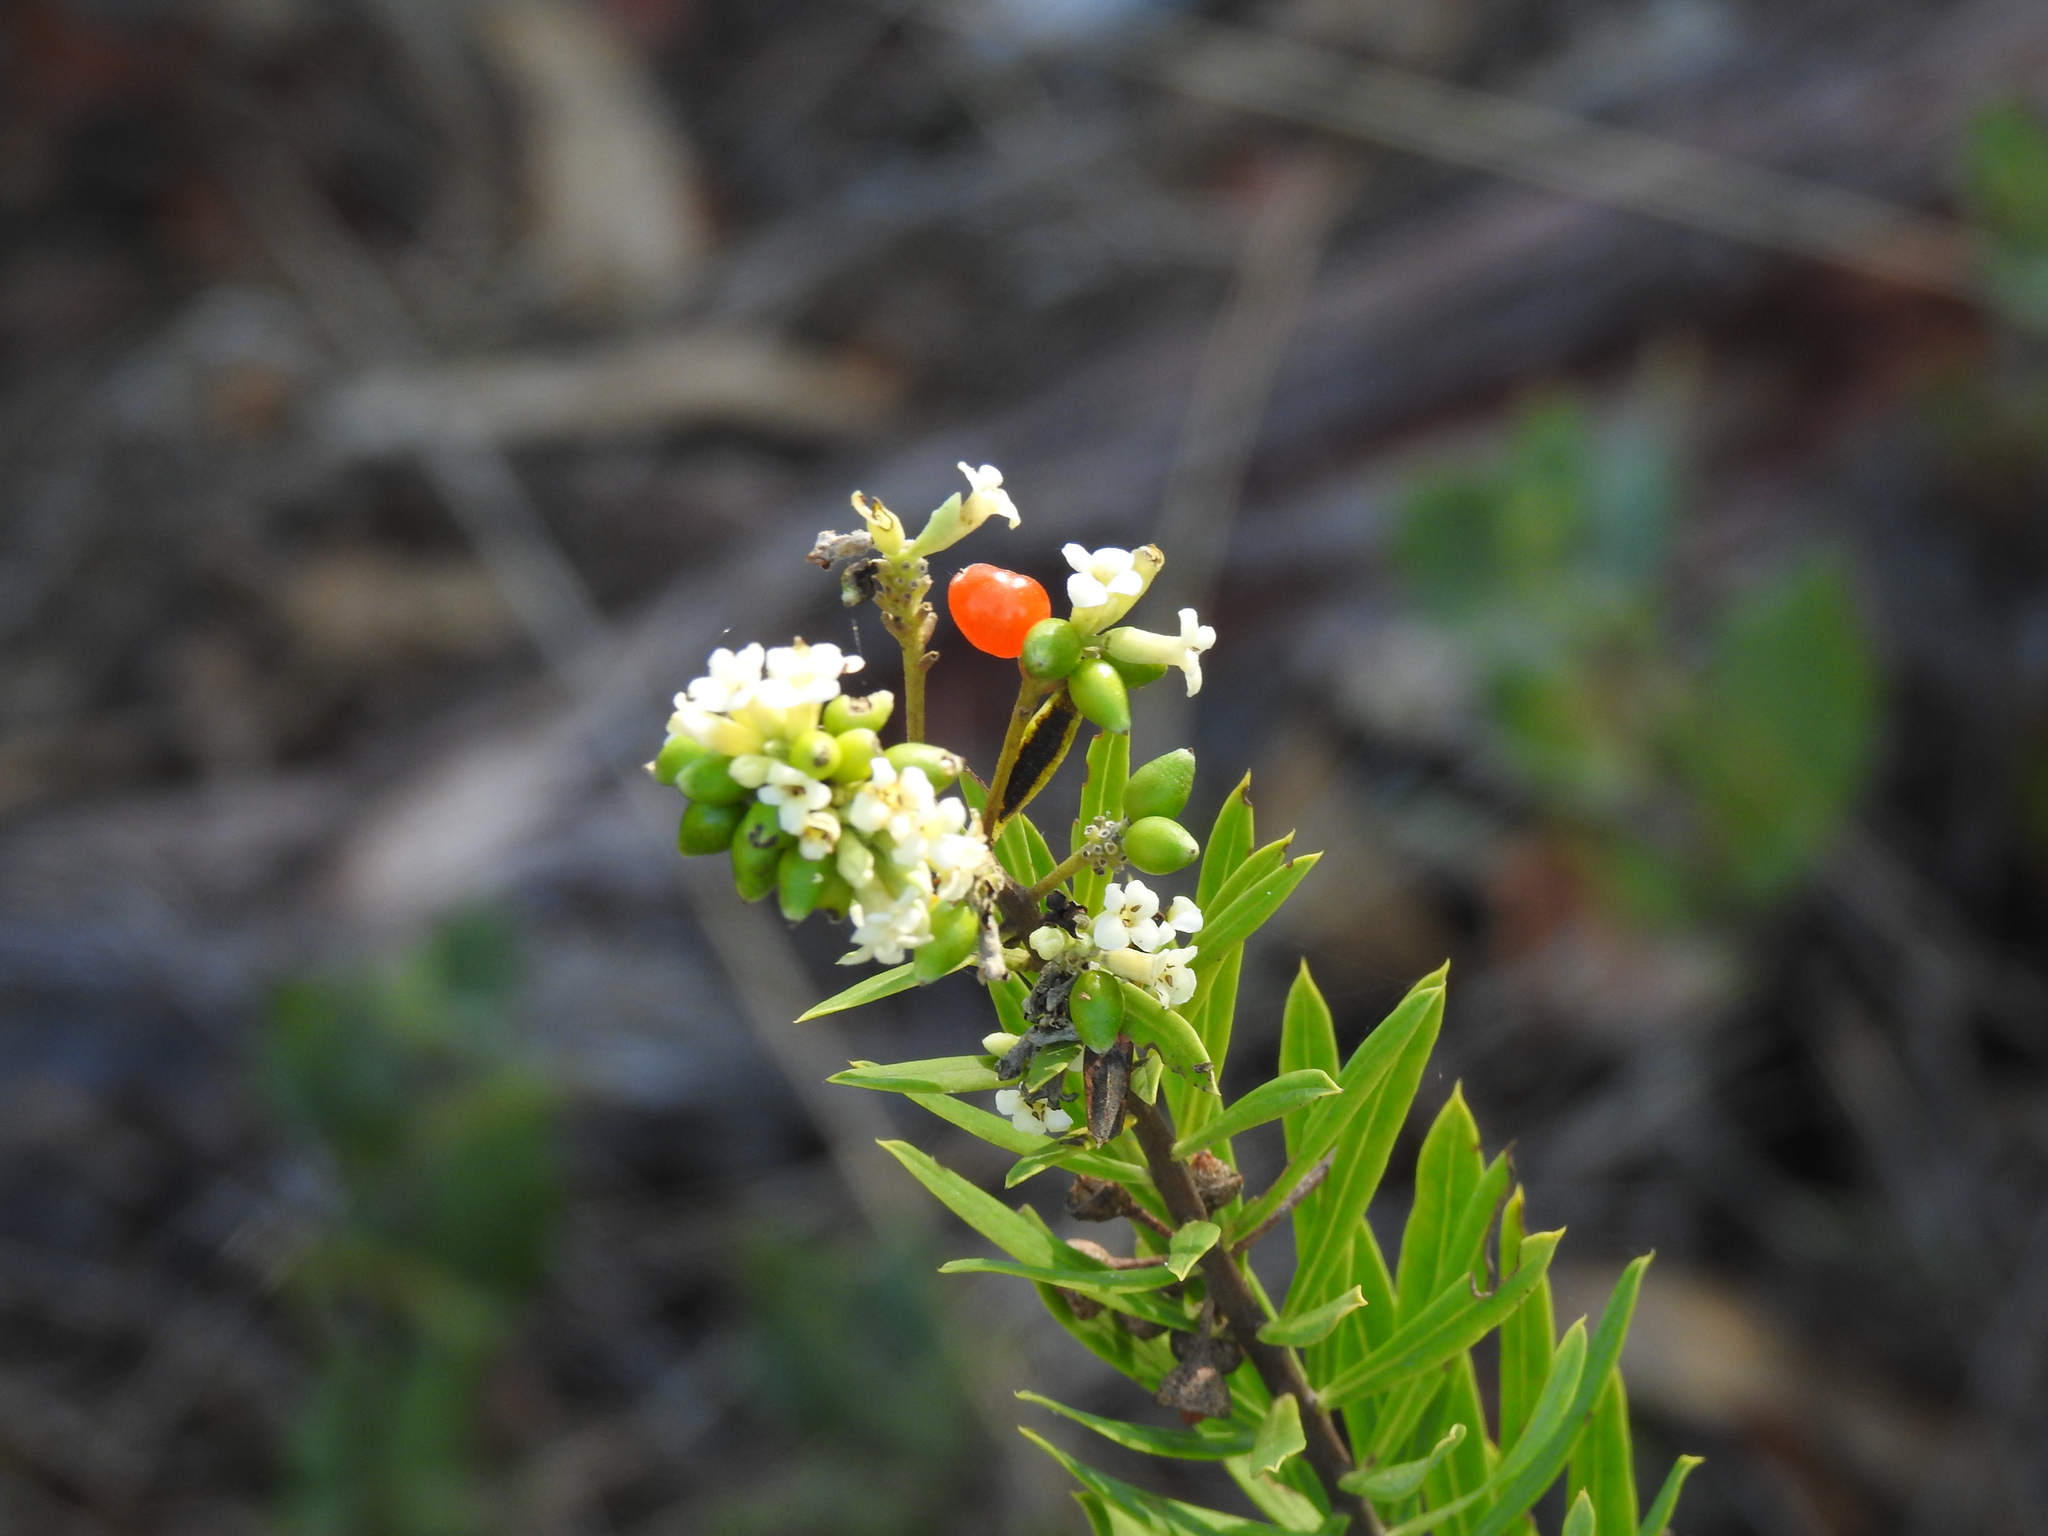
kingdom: Plantae
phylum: Tracheophyta
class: Magnoliopsida
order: Malvales
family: Thymelaeaceae
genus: Daphne
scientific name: Daphne gnidium
